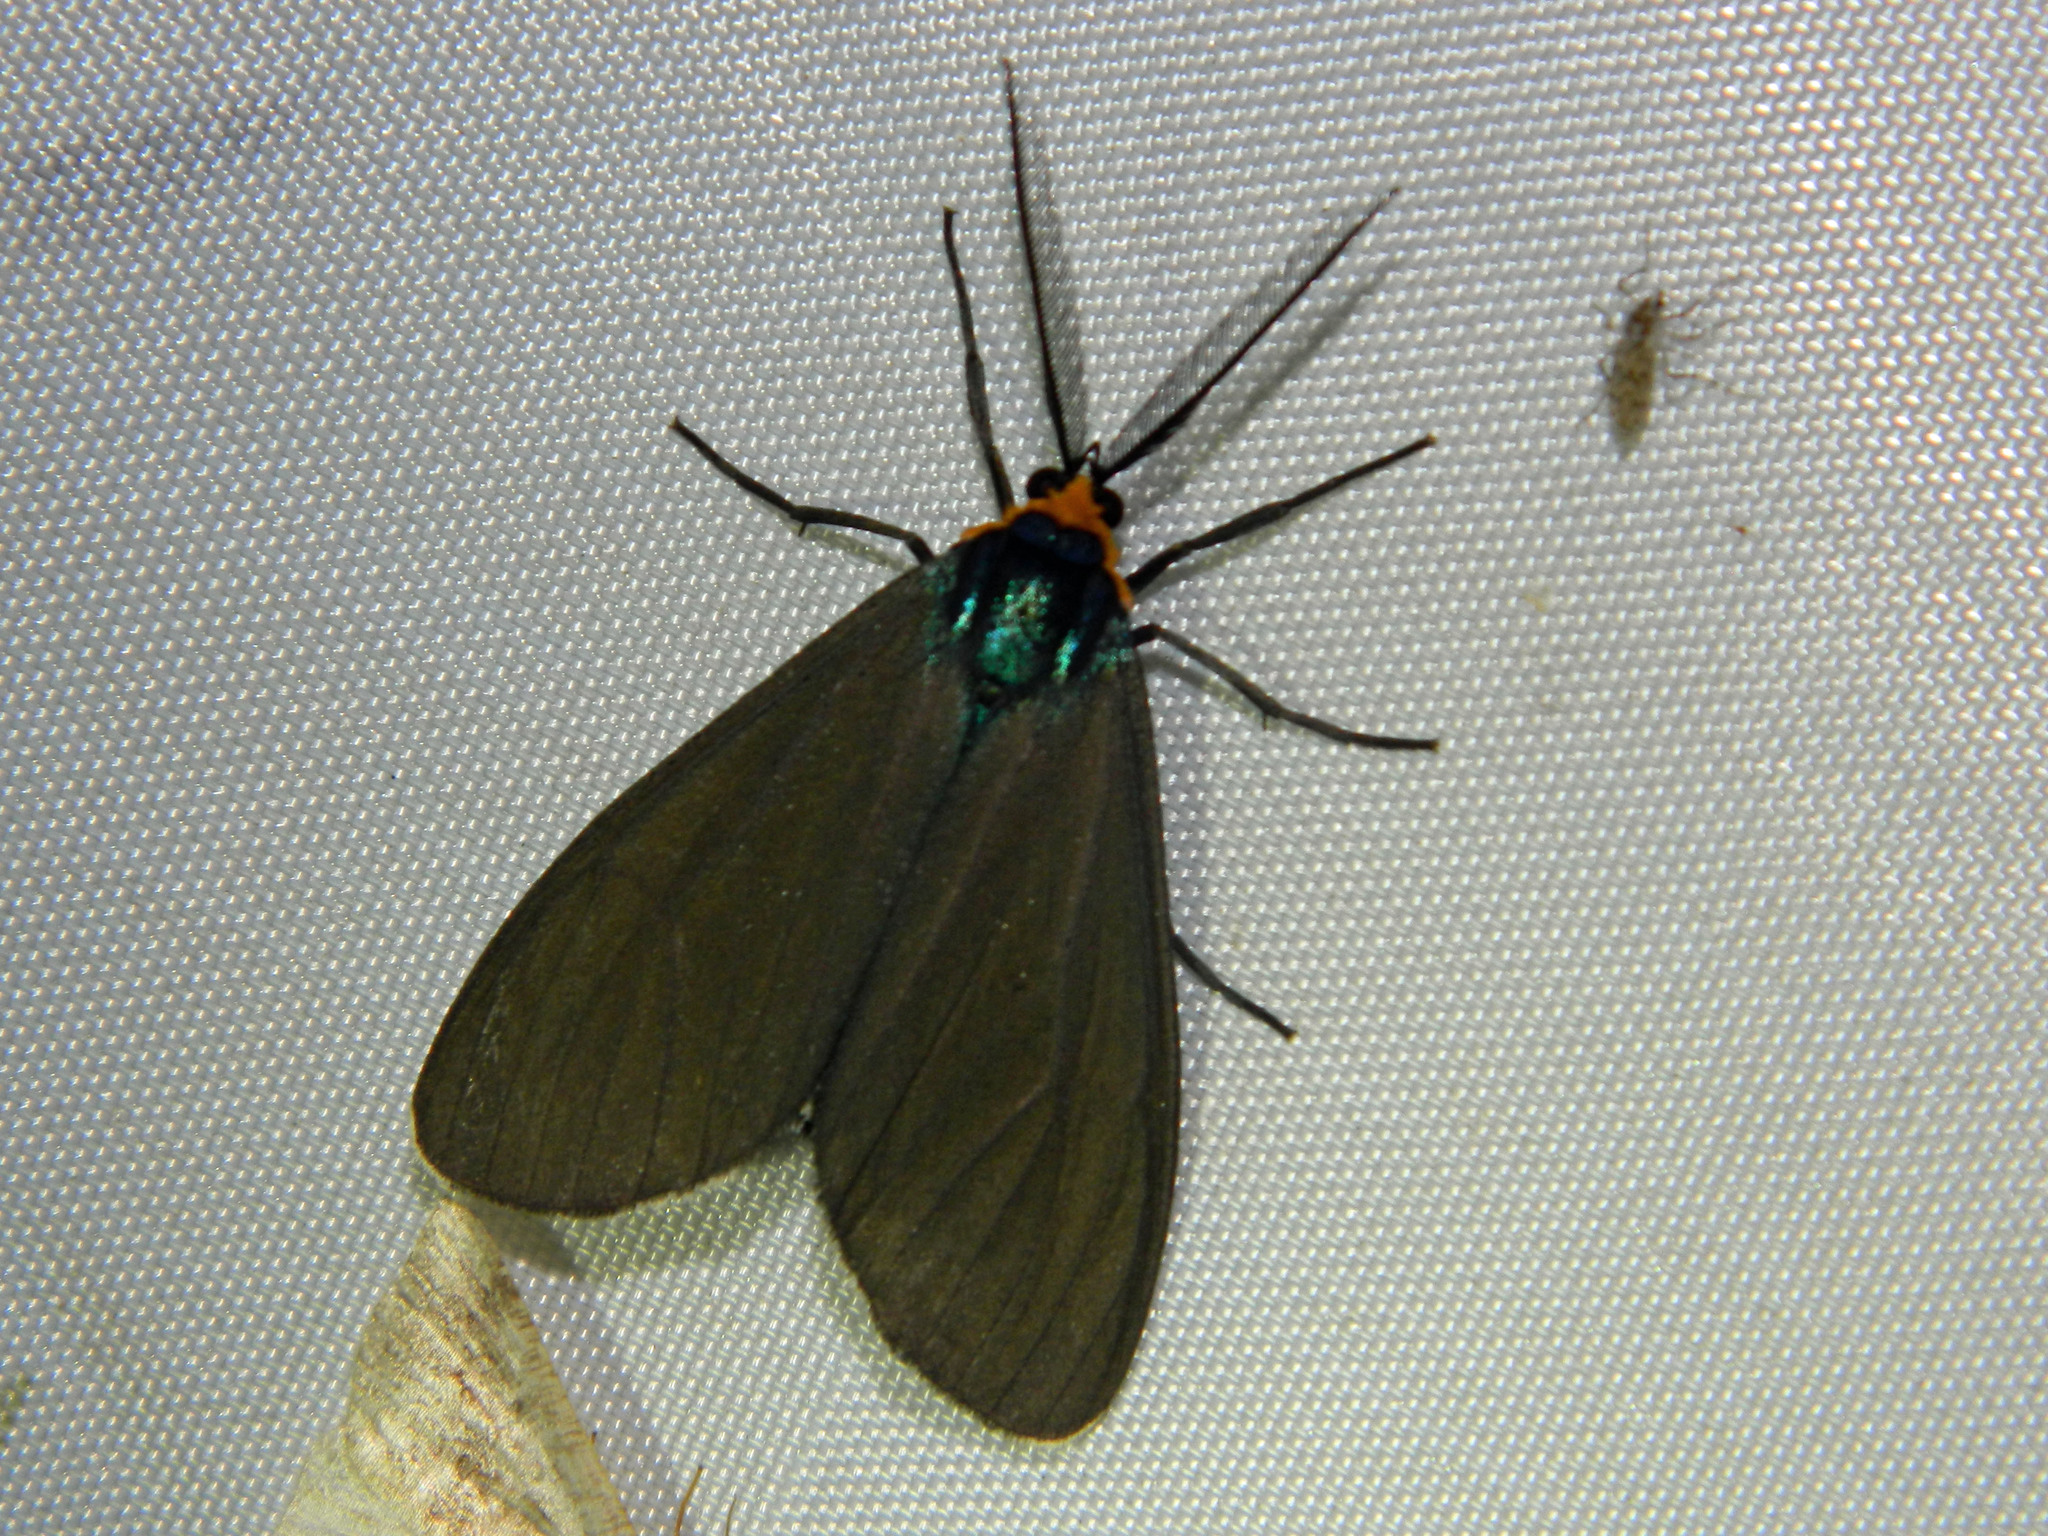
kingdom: Animalia
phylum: Arthropoda
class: Insecta
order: Lepidoptera
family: Erebidae
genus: Ctenucha
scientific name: Ctenucha virginica
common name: Virginia ctenucha moth
